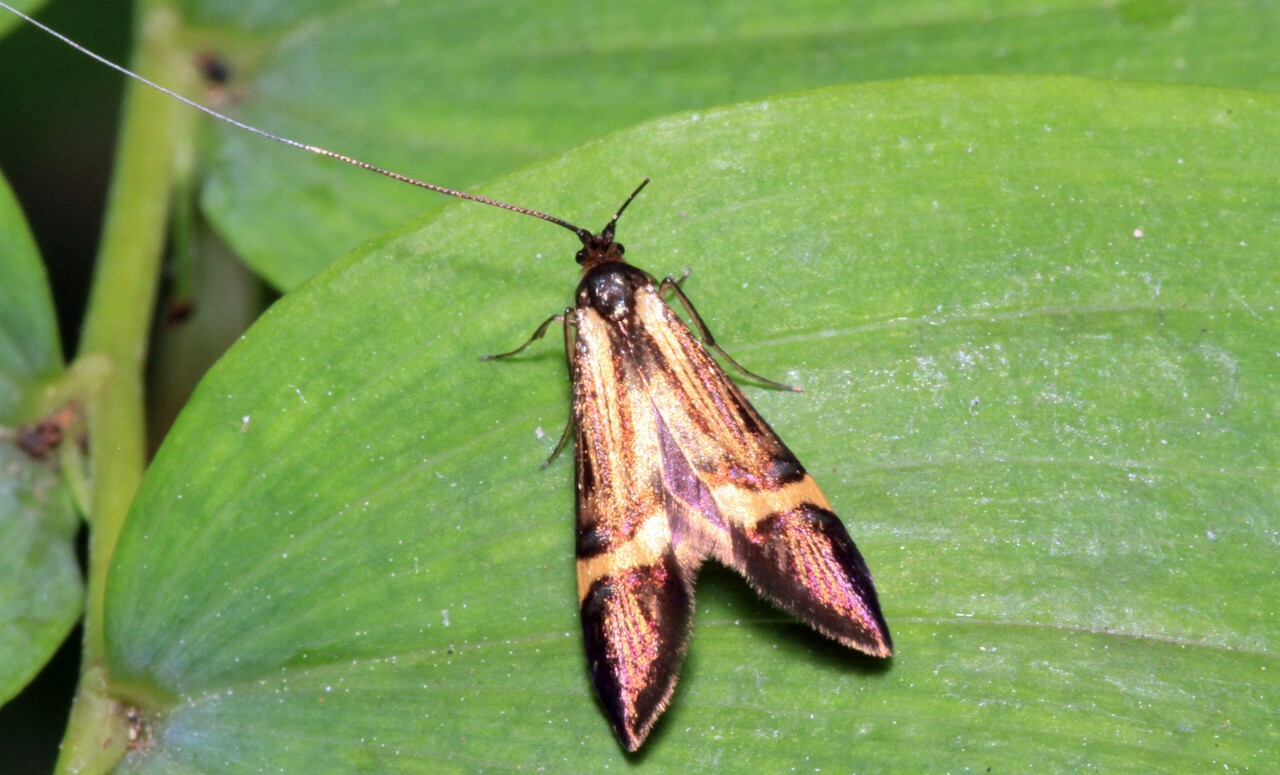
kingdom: Animalia
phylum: Arthropoda
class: Insecta
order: Lepidoptera
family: Adelidae
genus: Nemophora
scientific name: Nemophora
